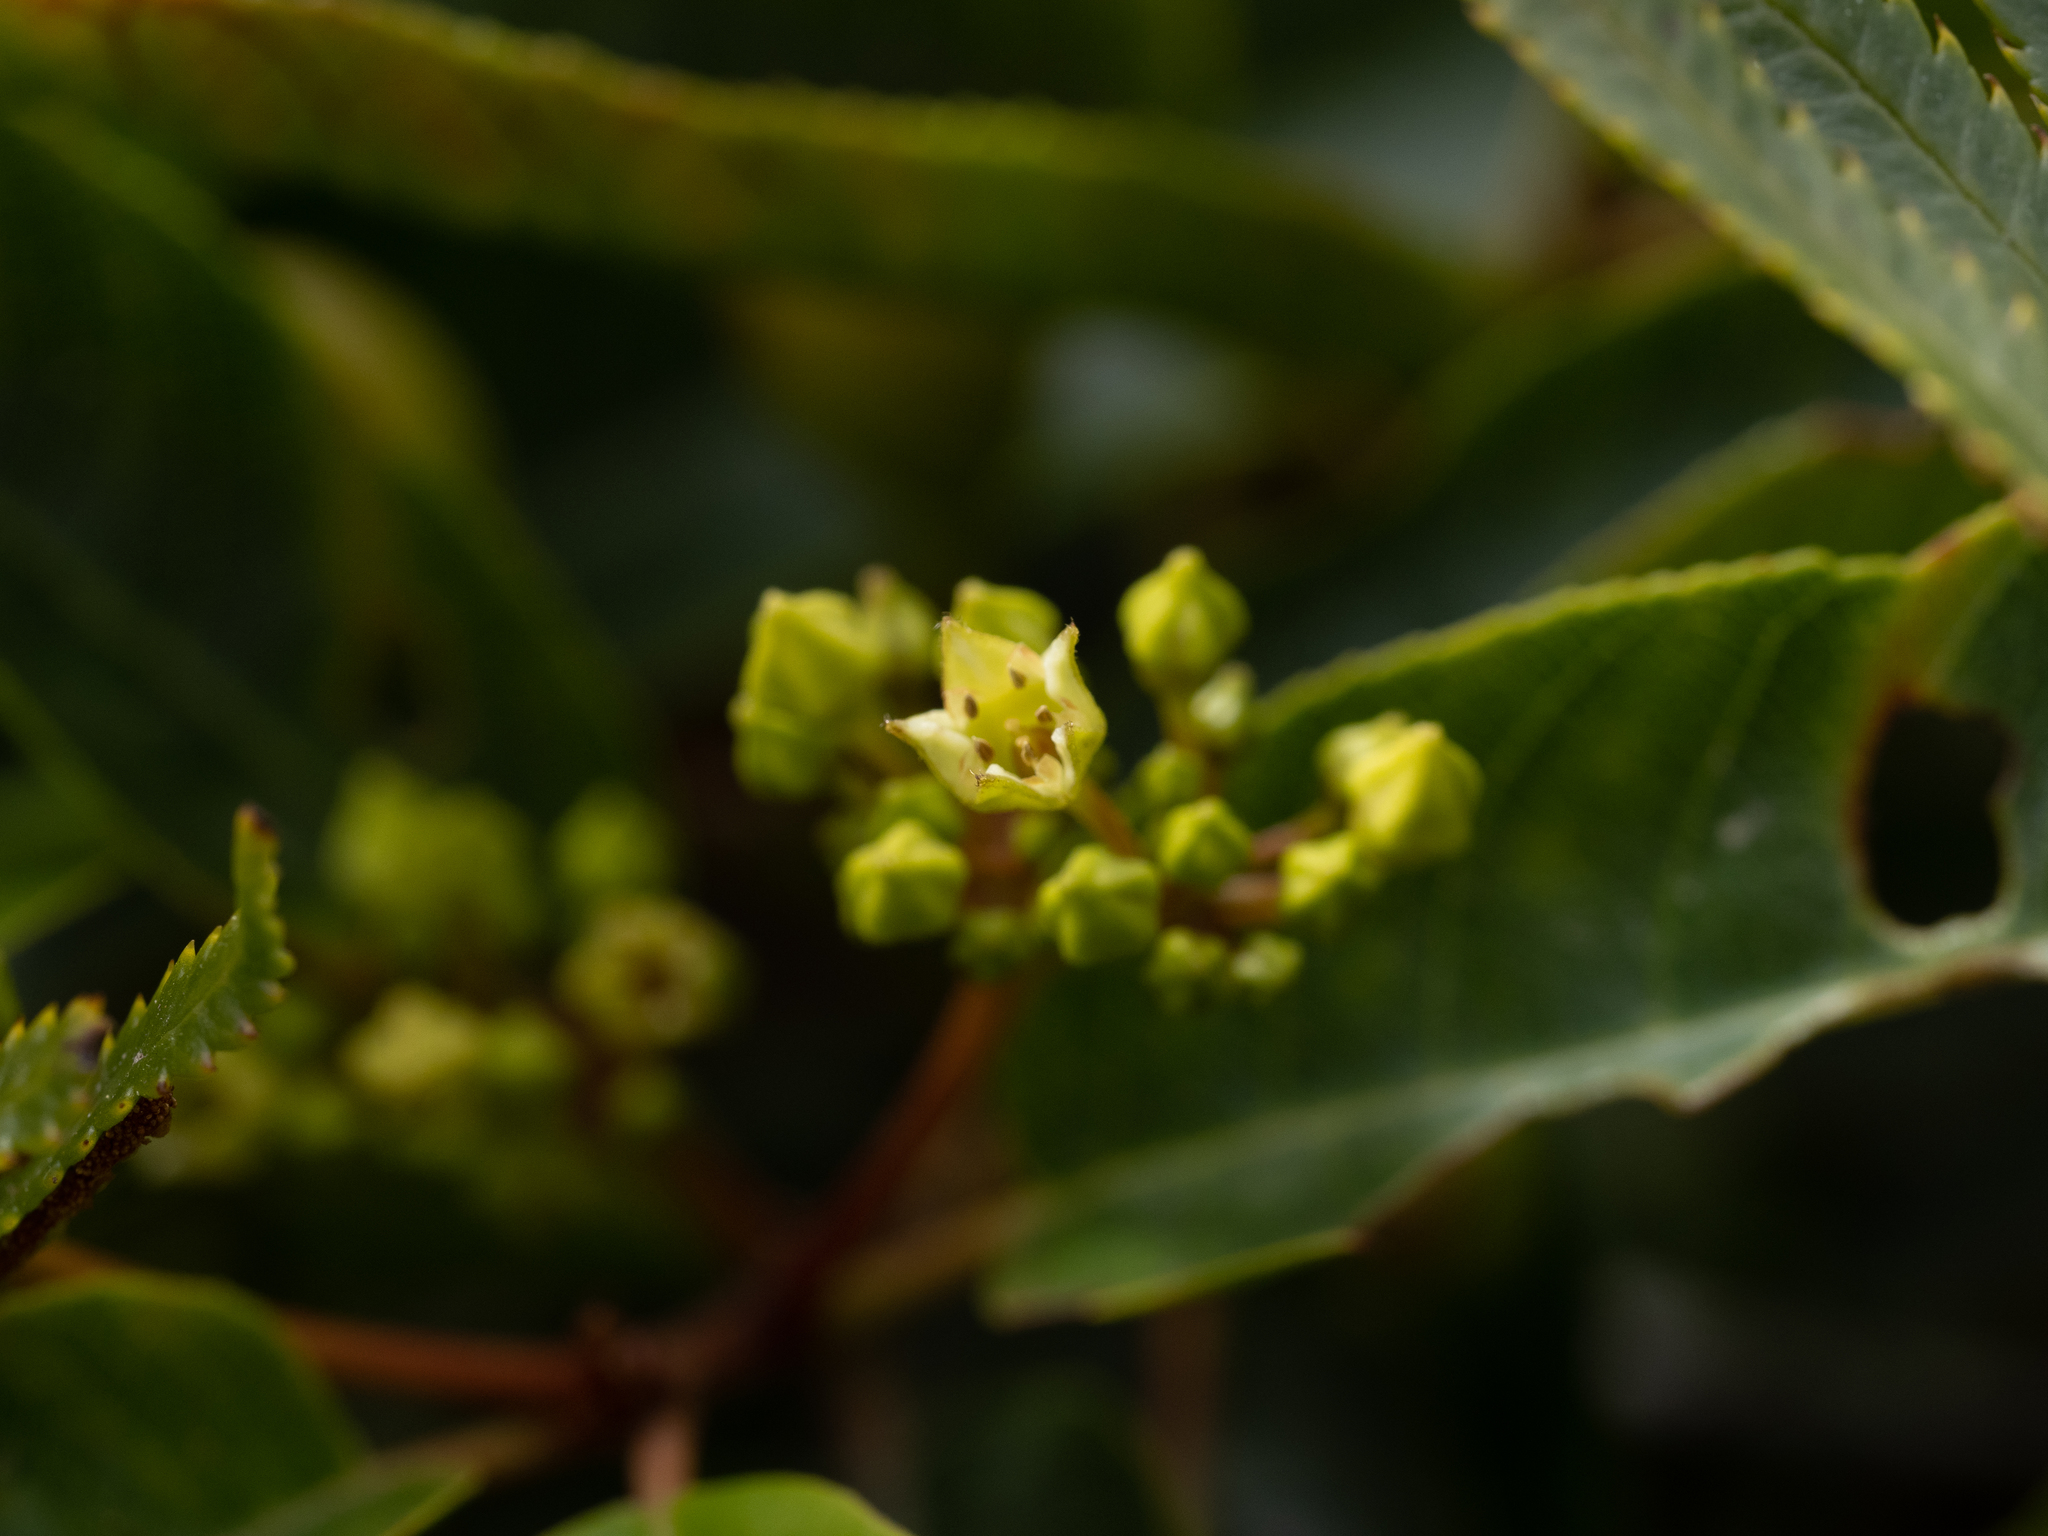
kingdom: Plantae
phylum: Tracheophyta
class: Magnoliopsida
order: Rosales
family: Rhamnaceae
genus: Frangula
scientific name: Frangula californica
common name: California buckthorn
